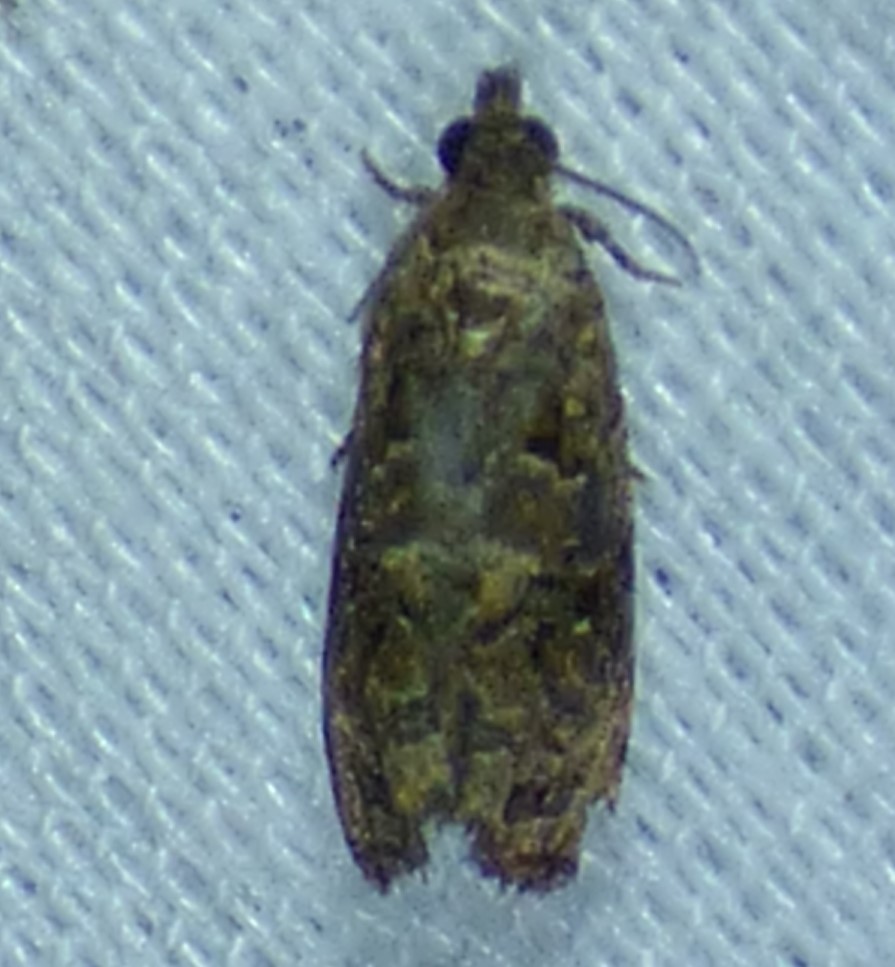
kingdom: Animalia
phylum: Arthropoda
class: Insecta
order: Lepidoptera
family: Tortricidae
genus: Endothenia
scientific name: Endothenia hebesana
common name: Verbena bud moth
